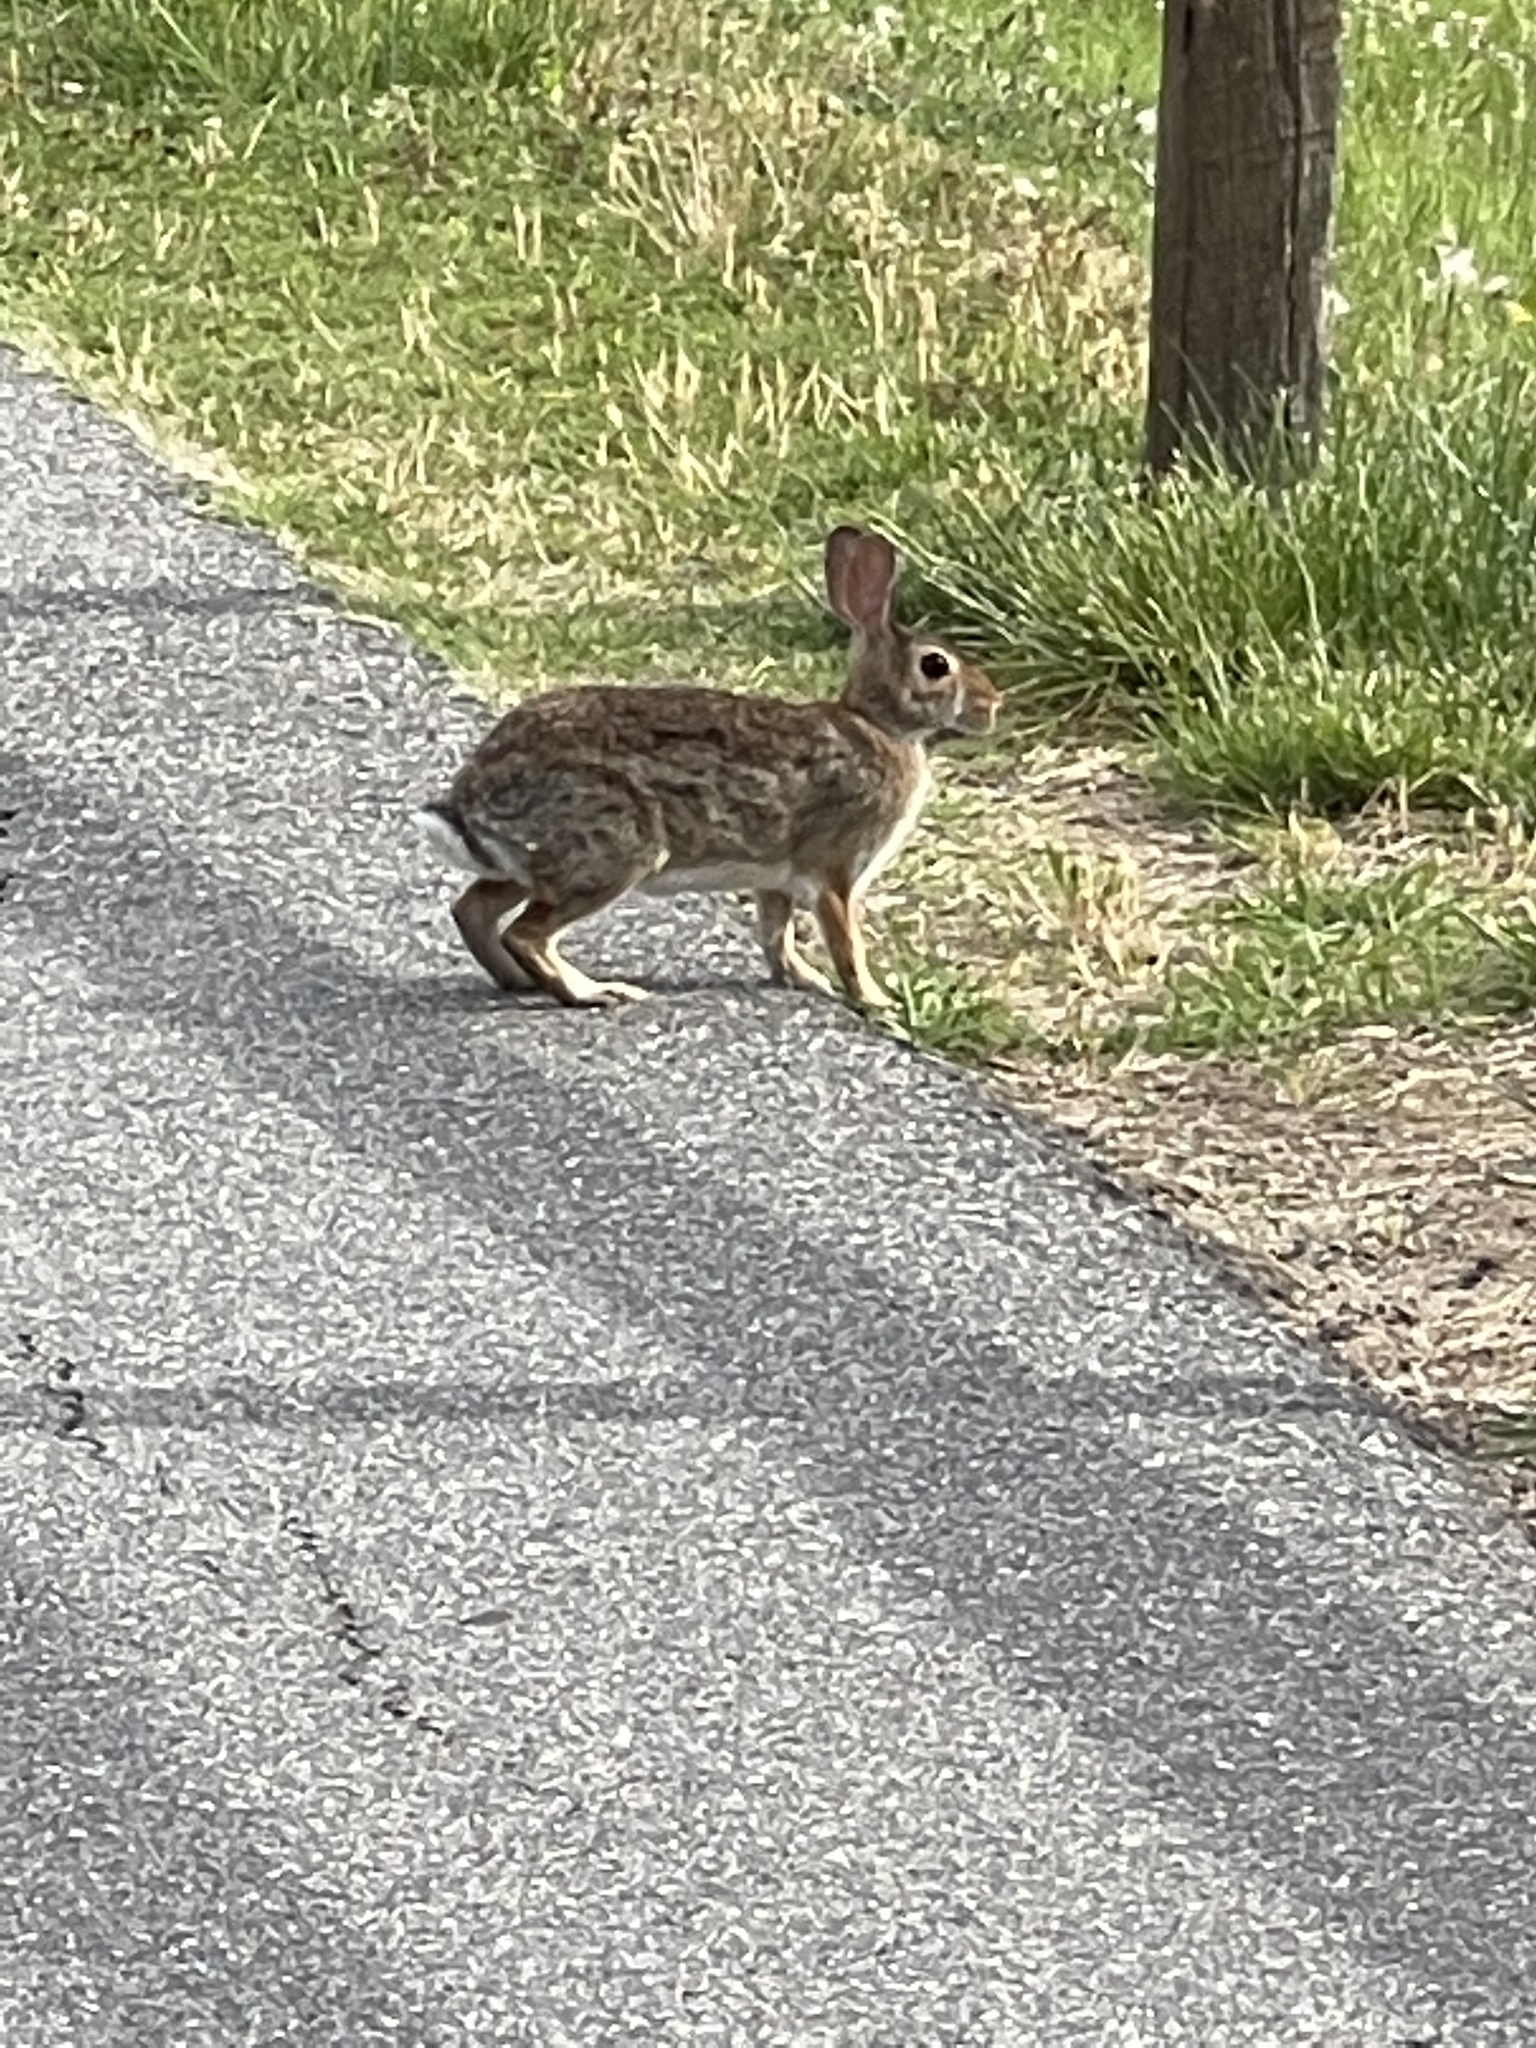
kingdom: Animalia
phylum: Chordata
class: Mammalia
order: Lagomorpha
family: Leporidae
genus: Sylvilagus
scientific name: Sylvilagus floridanus
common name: Eastern cottontail
